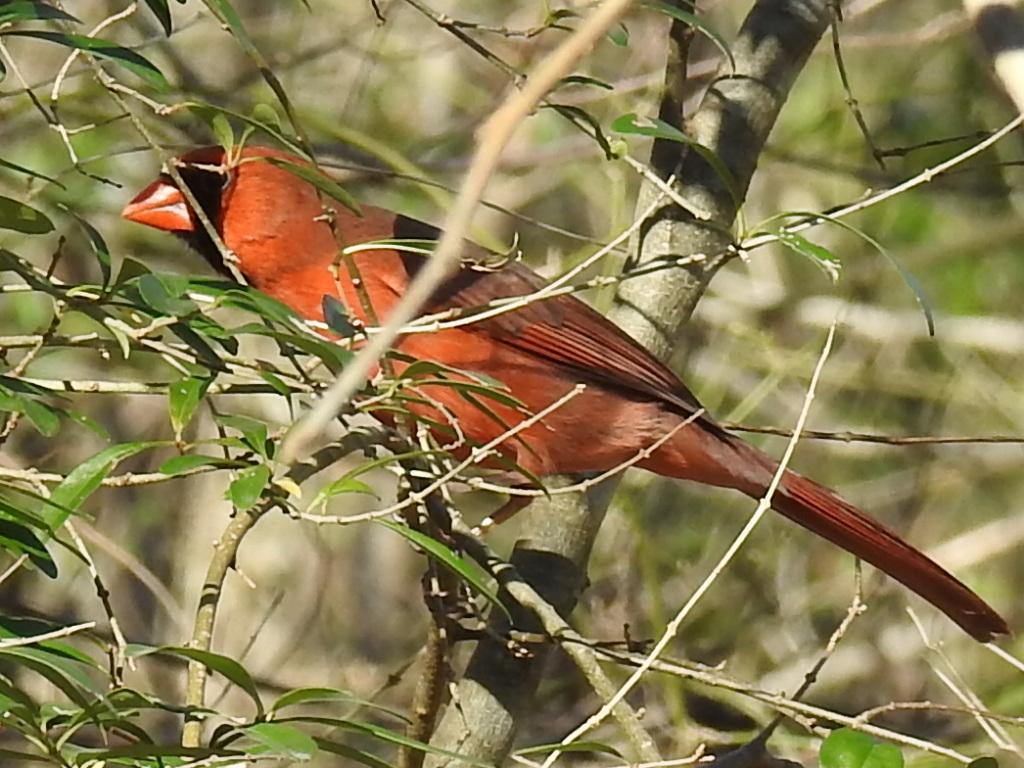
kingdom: Animalia
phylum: Chordata
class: Aves
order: Passeriformes
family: Cardinalidae
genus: Cardinalis
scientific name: Cardinalis cardinalis
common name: Northern cardinal
